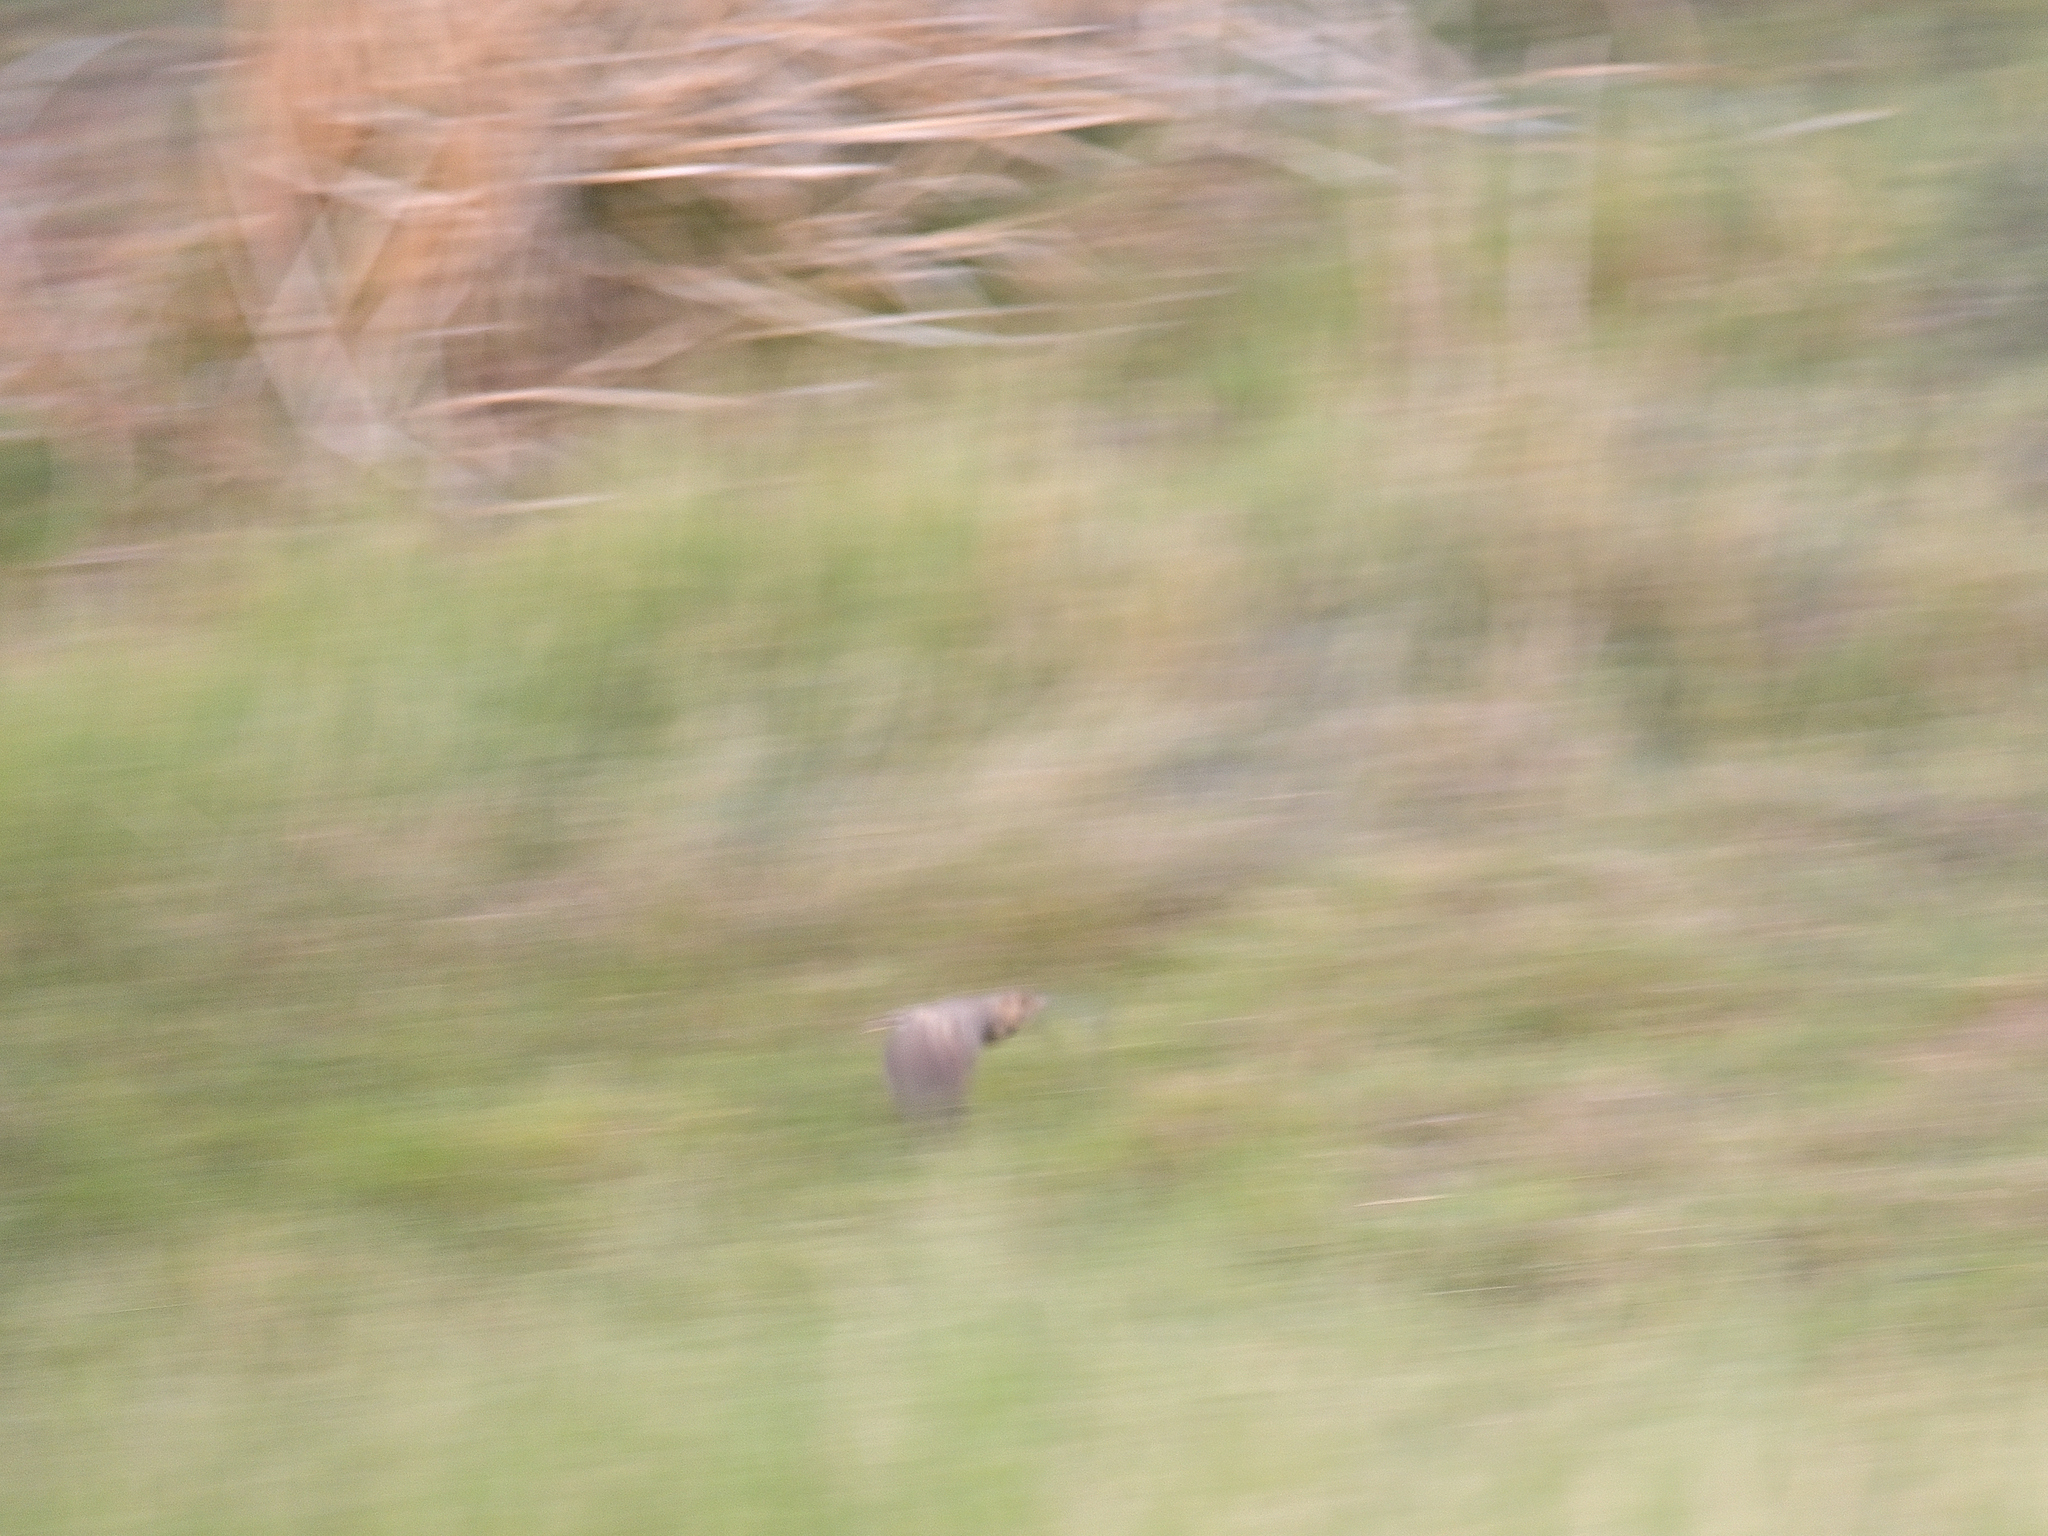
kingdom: Animalia
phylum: Chordata
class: Aves
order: Passeriformes
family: Alaudidae
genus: Galerida
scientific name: Galerida theklae
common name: Thekla lark
